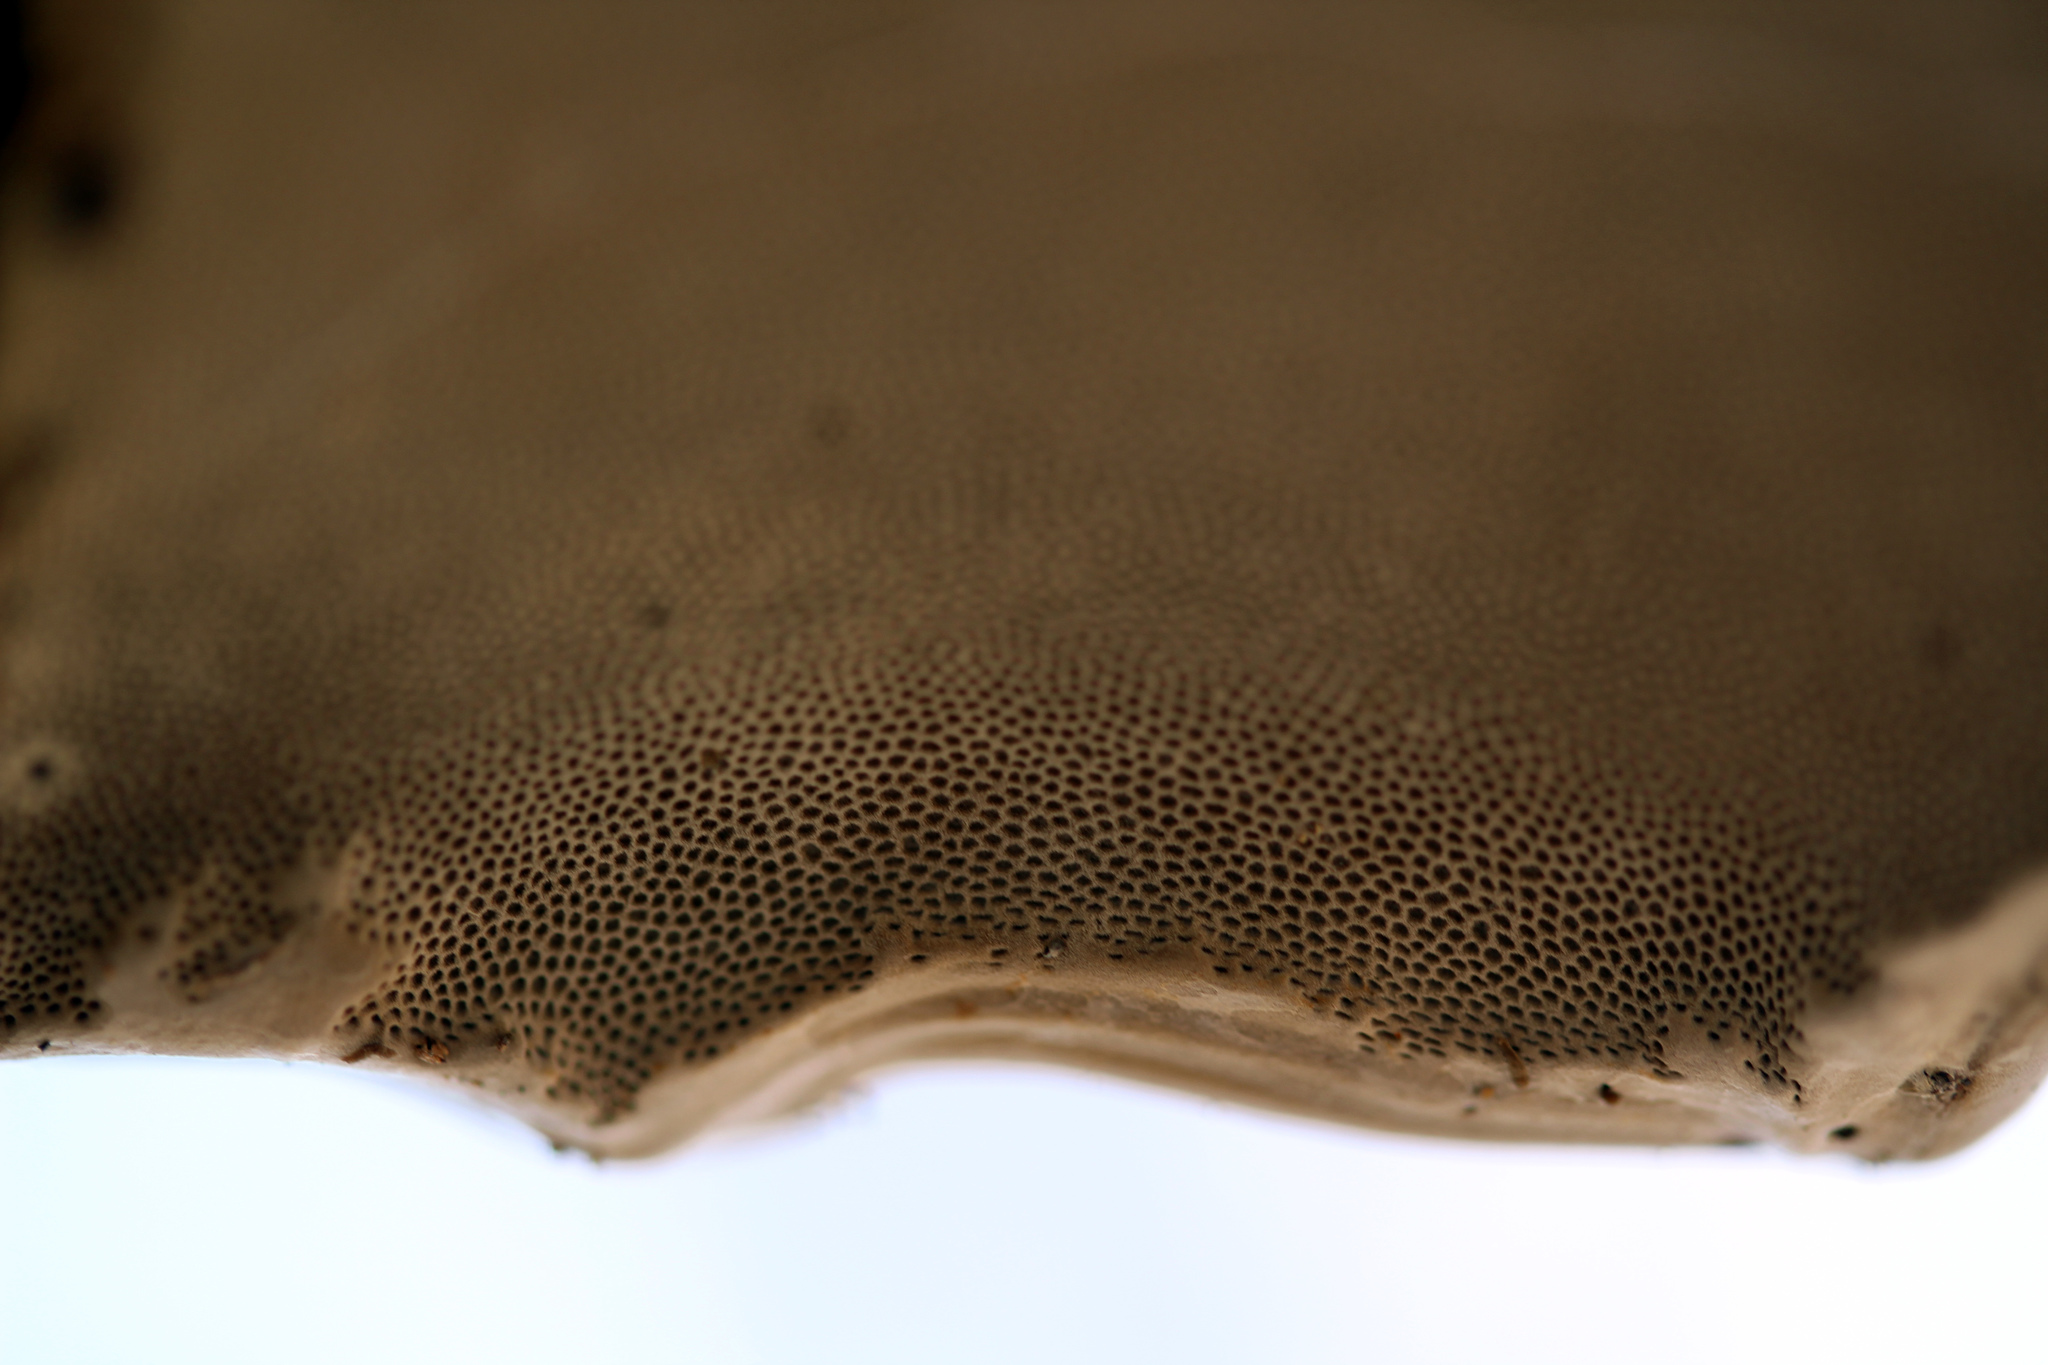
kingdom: Fungi
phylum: Basidiomycota
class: Agaricomycetes
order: Polyporales
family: Polyporaceae
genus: Fomes
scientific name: Fomes fomentarius
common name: Hoof fungus
